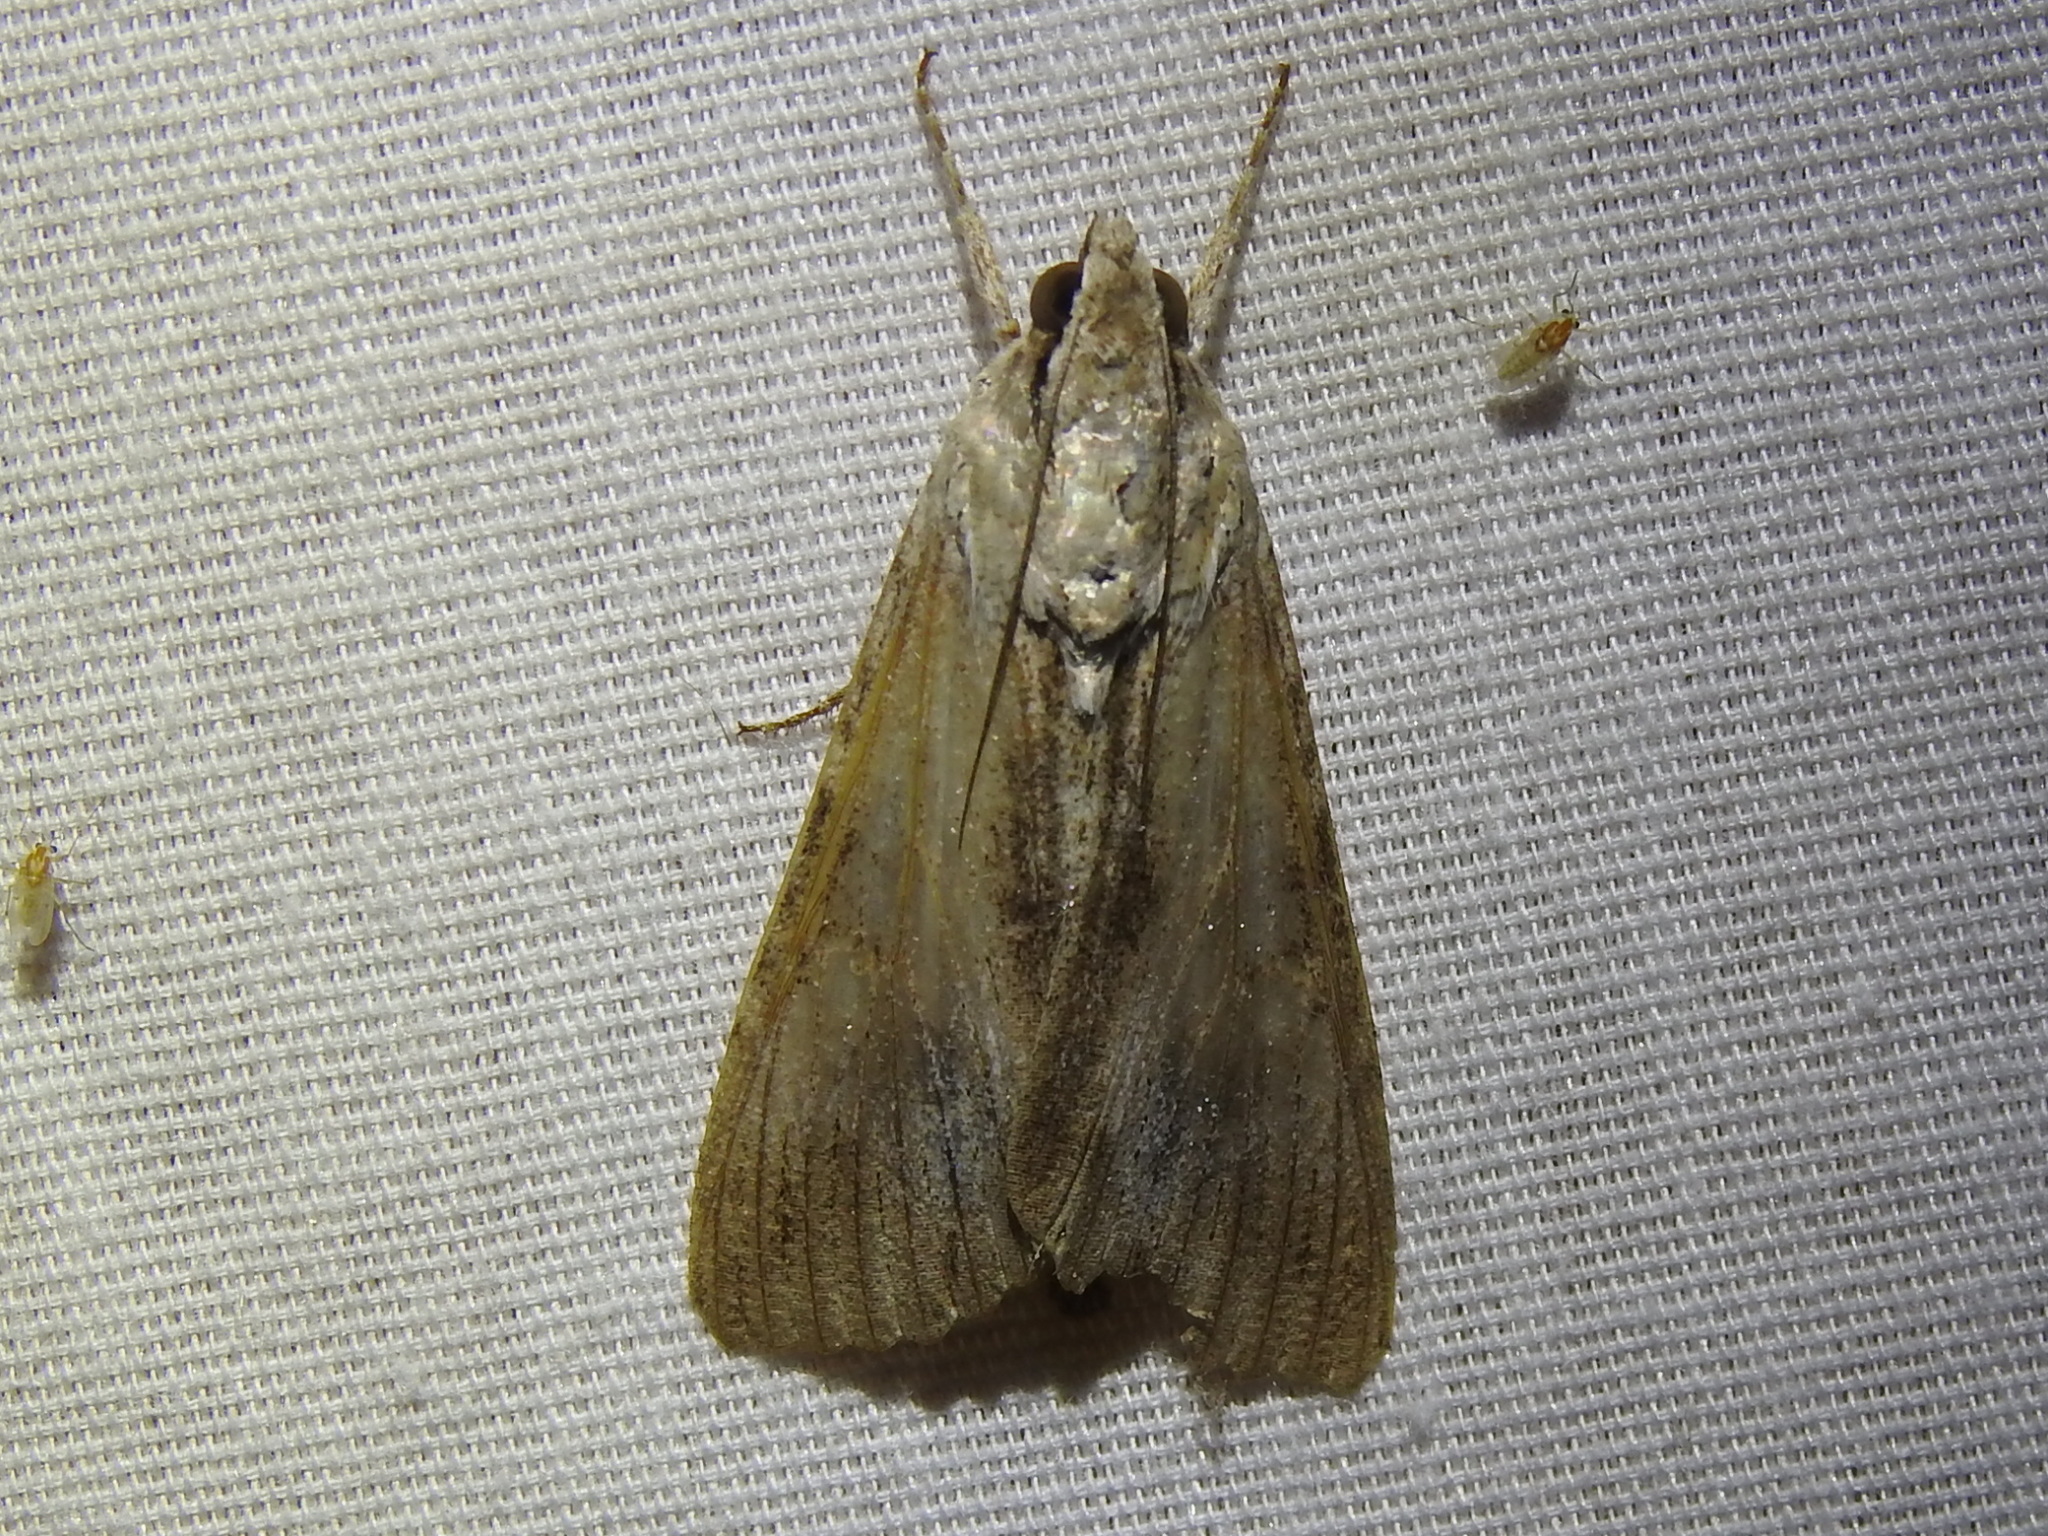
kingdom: Animalia
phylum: Arthropoda
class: Insecta
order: Lepidoptera
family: Erebidae
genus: Melipotis
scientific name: Melipotis acontioides
